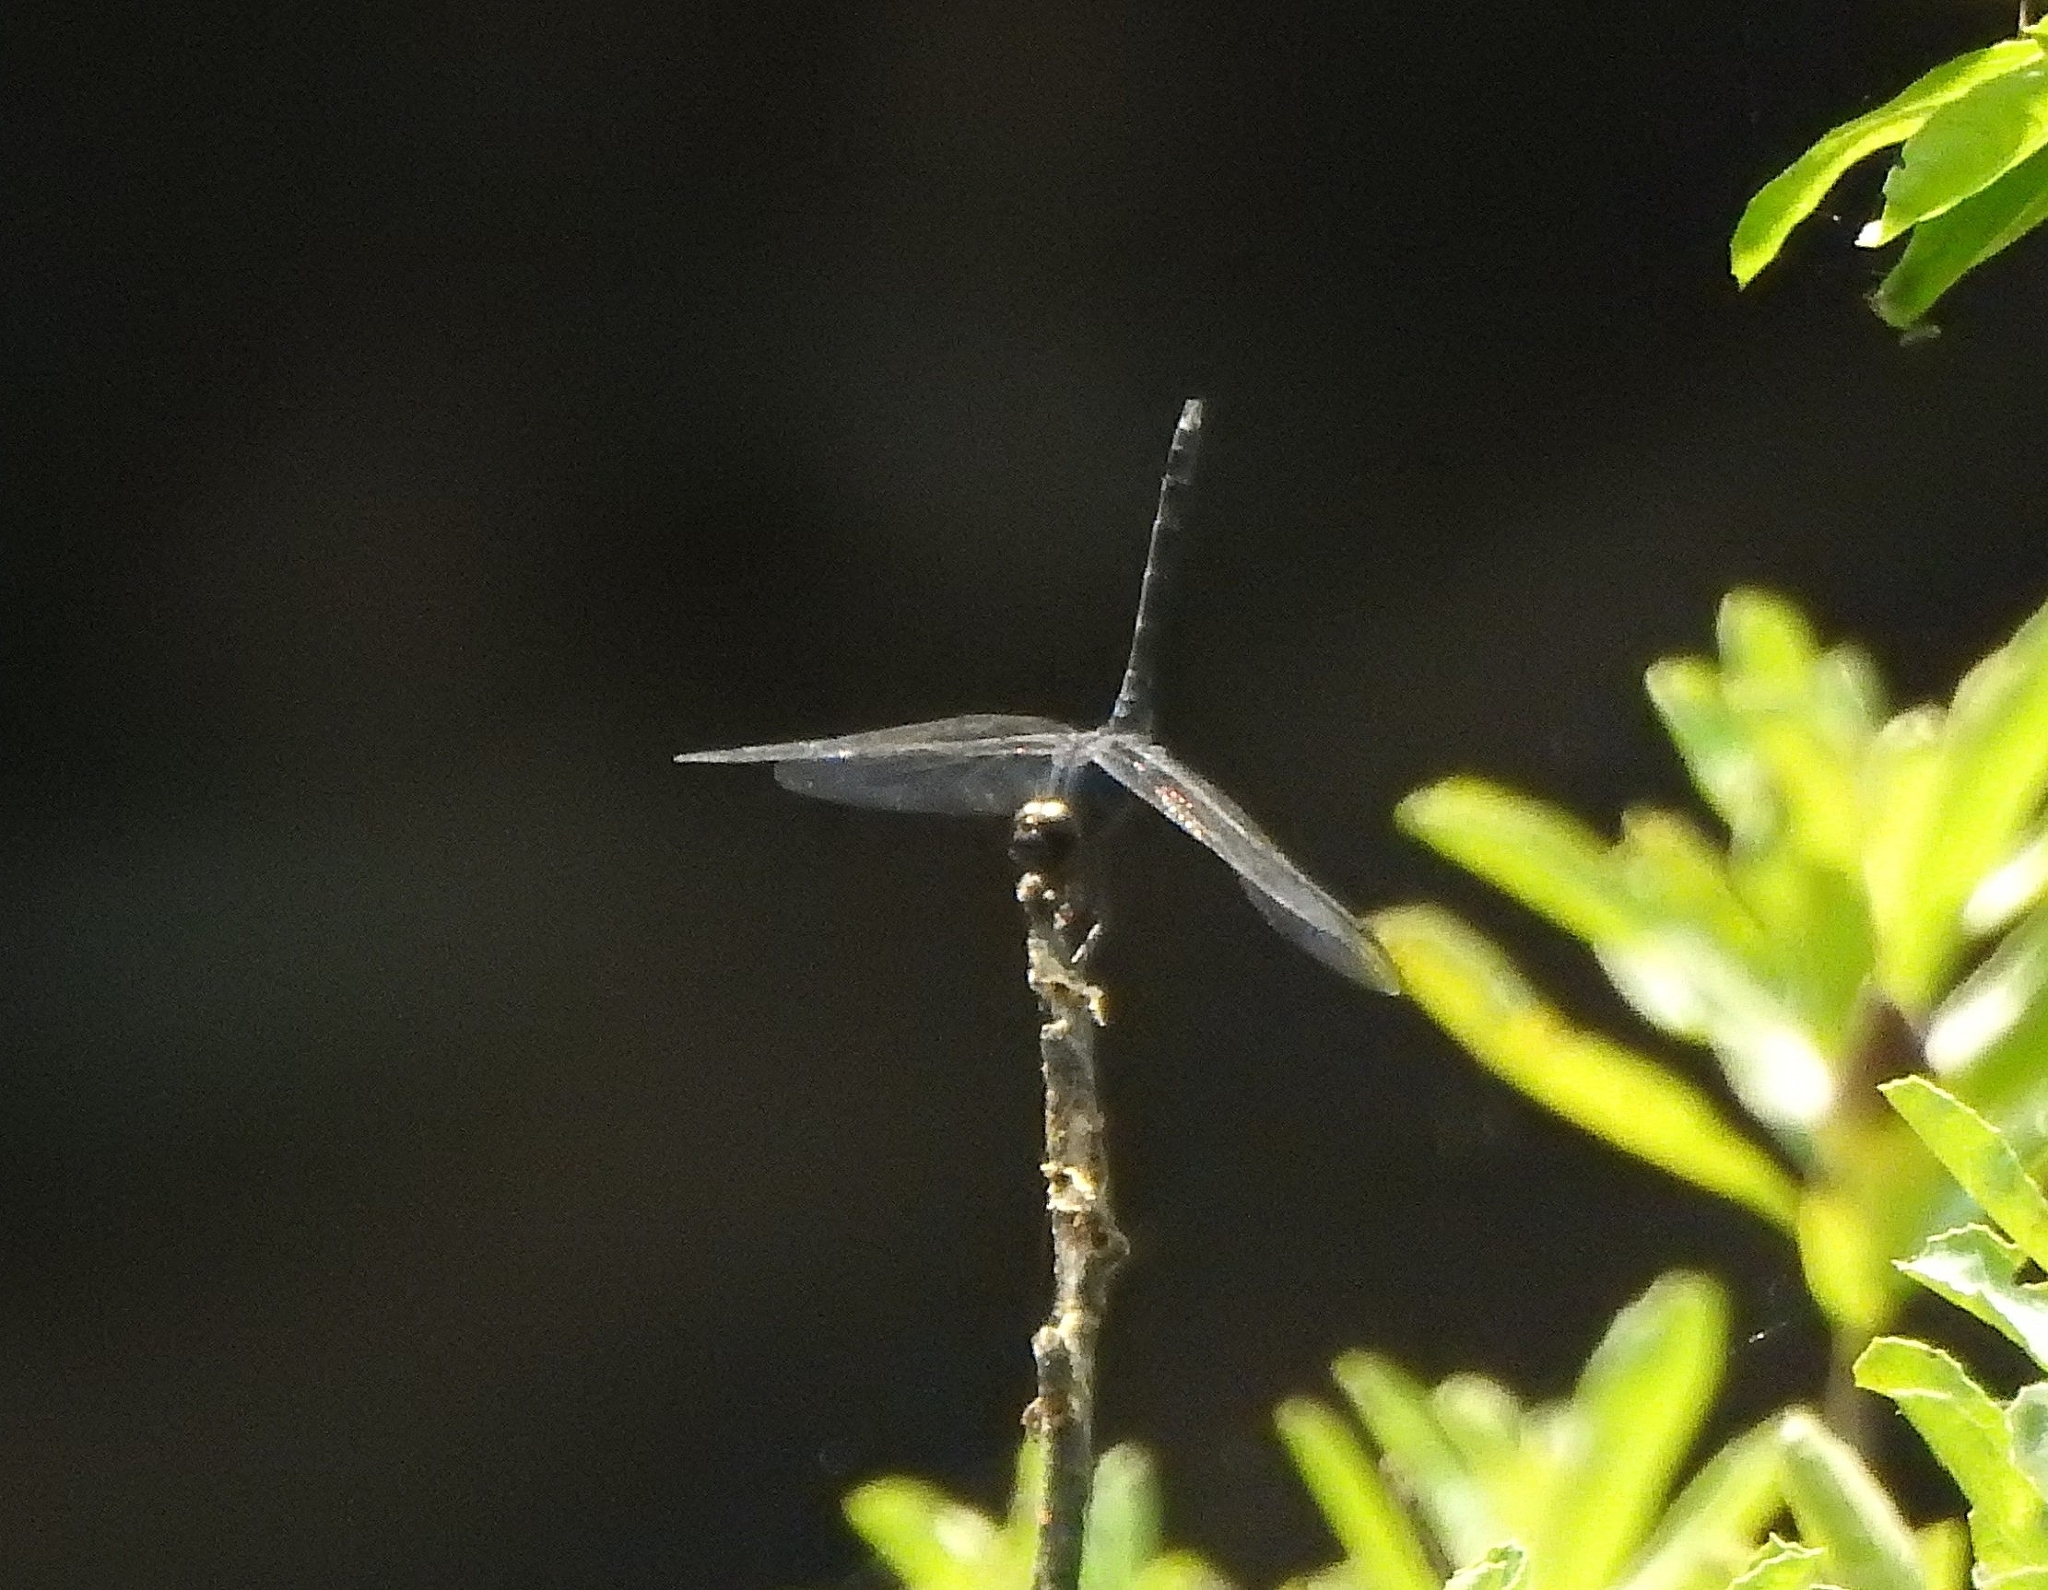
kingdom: Animalia
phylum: Arthropoda
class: Insecta
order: Odonata
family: Libellulidae
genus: Trithemis
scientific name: Trithemis festiva
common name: Indigo dropwing
